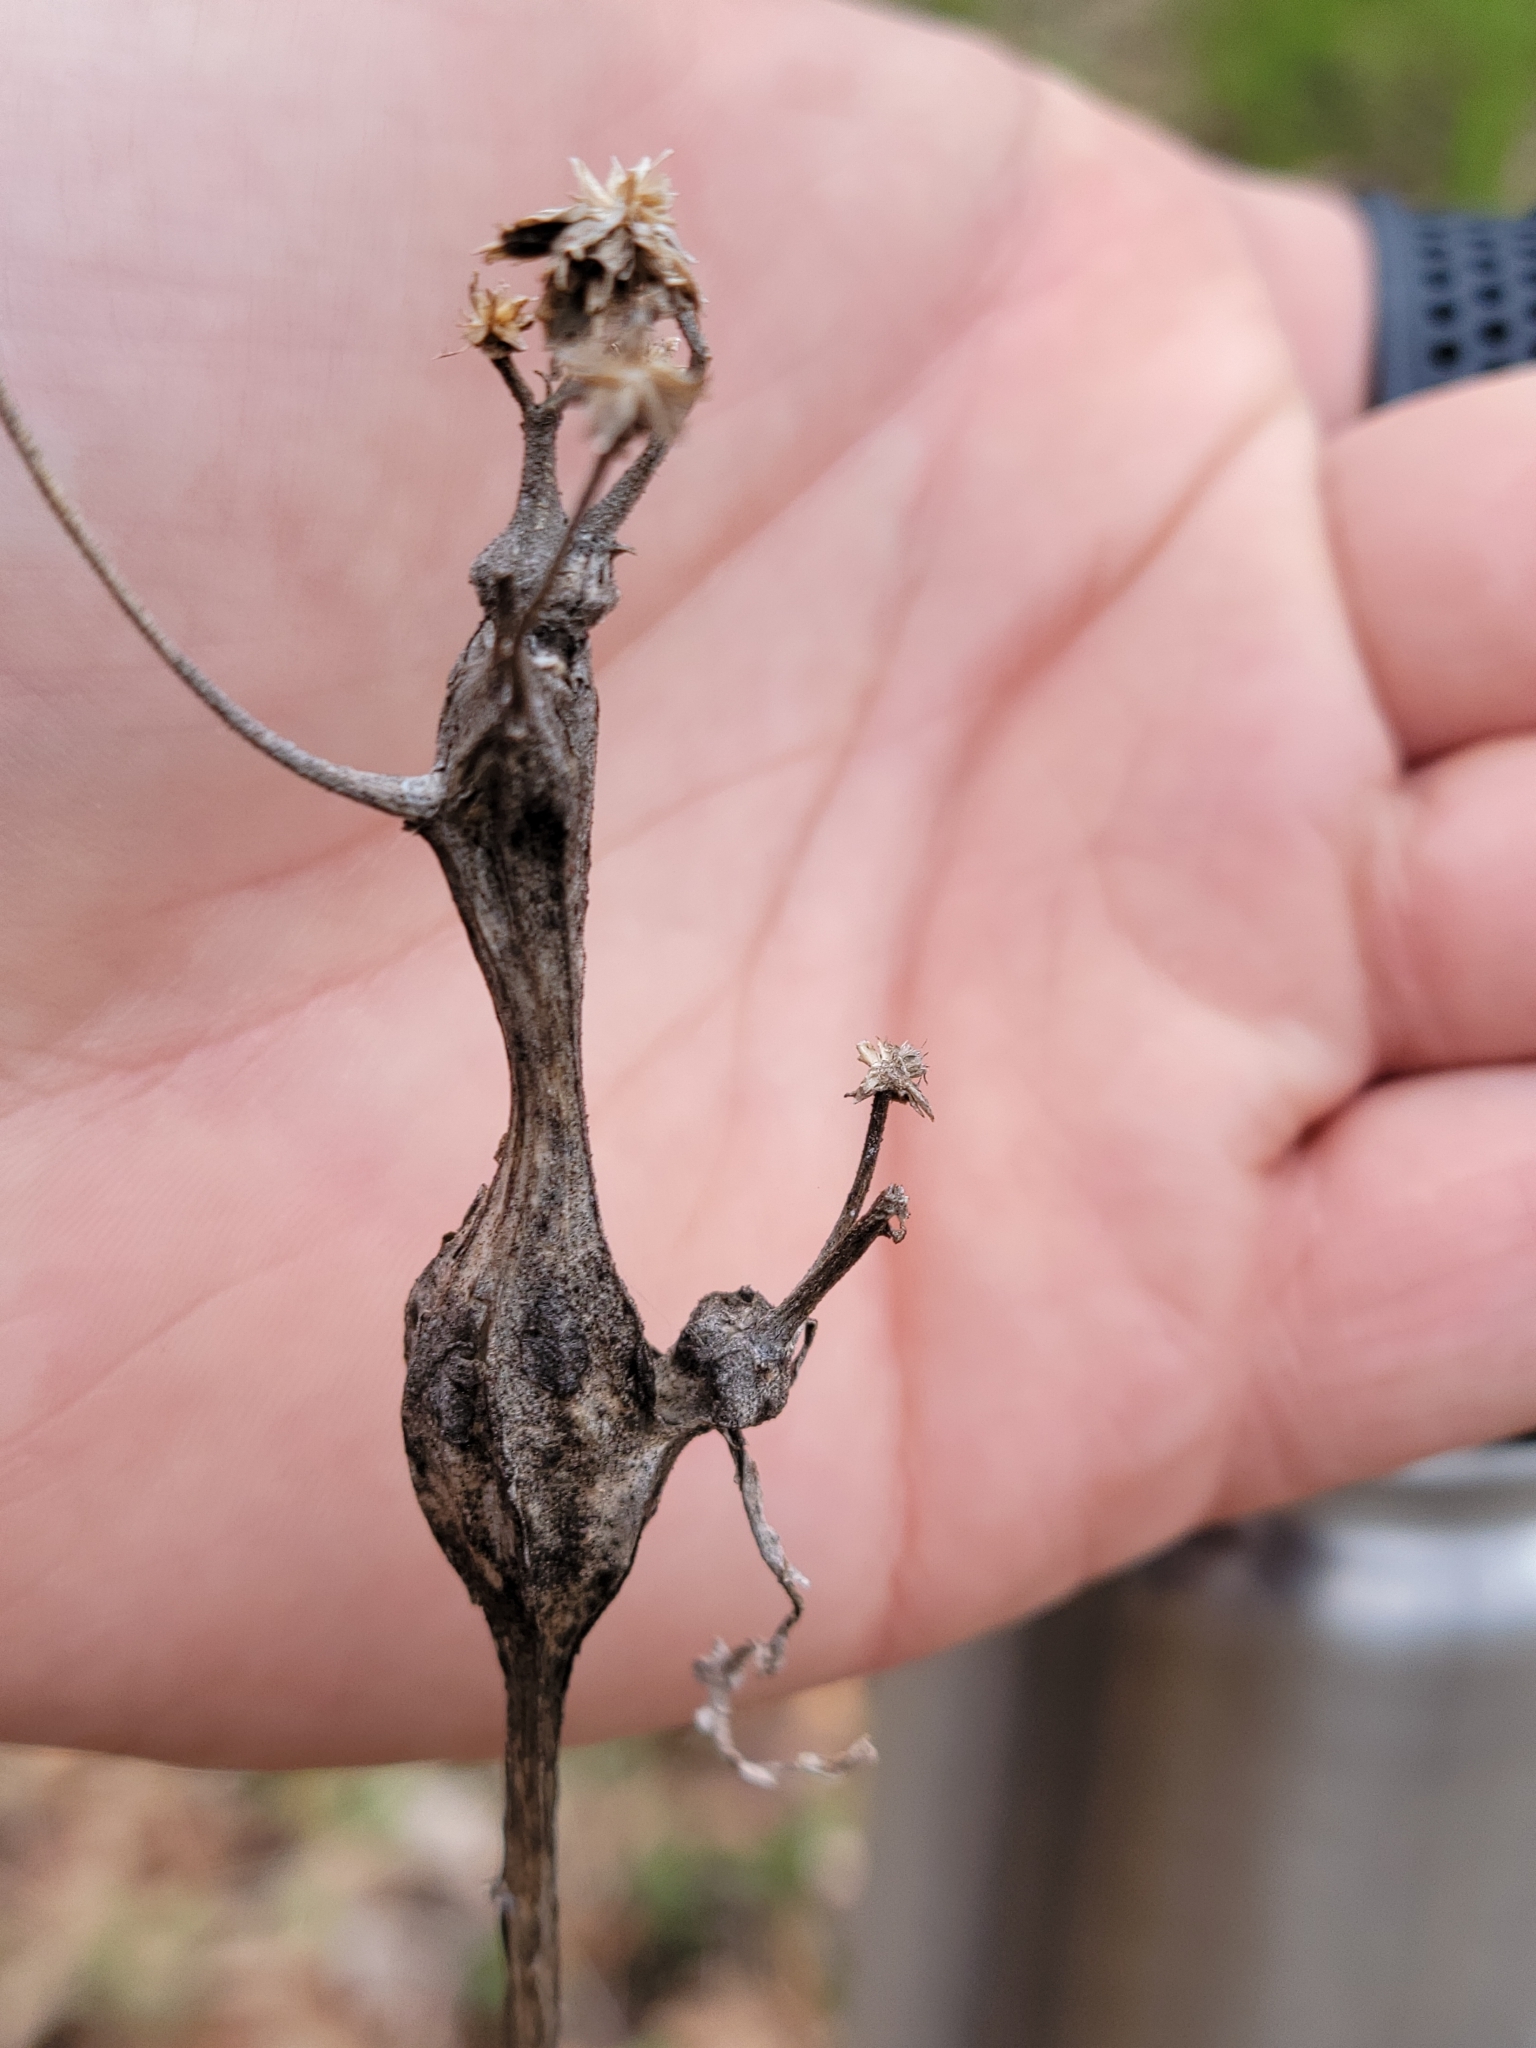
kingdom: Animalia
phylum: Arthropoda
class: Insecta
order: Diptera
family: Cecidomyiidae
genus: Neolasioptera
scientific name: Neolasioptera verbesinae
